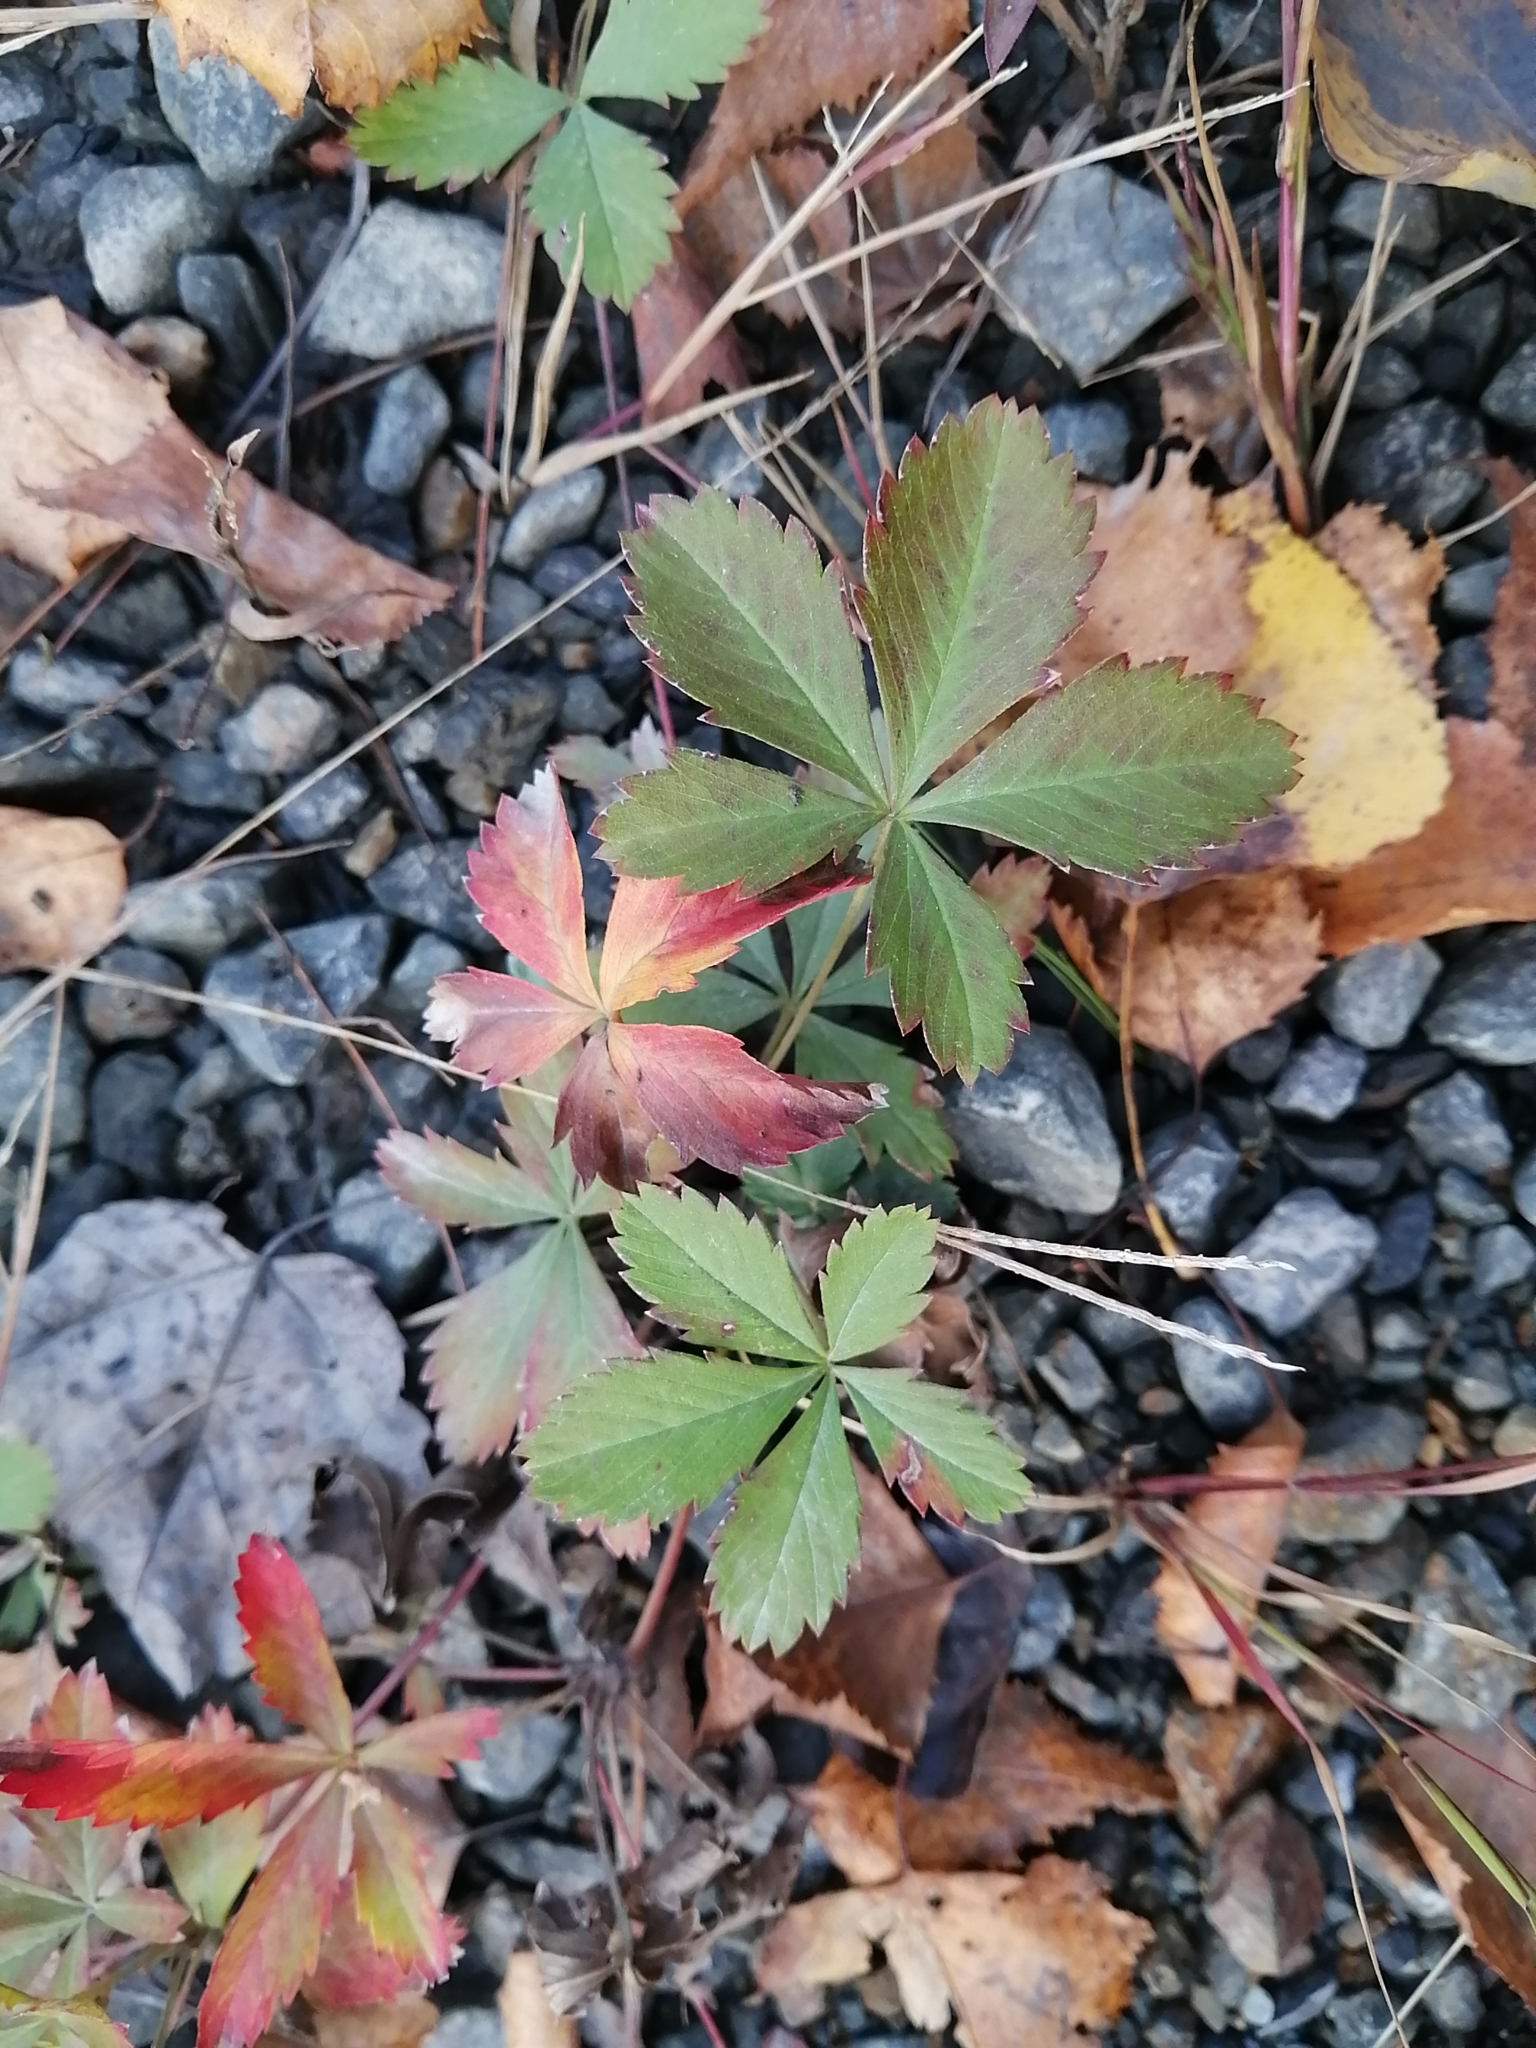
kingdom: Plantae
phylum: Tracheophyta
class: Magnoliopsida
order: Rosales
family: Rosaceae
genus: Potentilla
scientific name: Potentilla canadensis
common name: Canada cinquefoil
